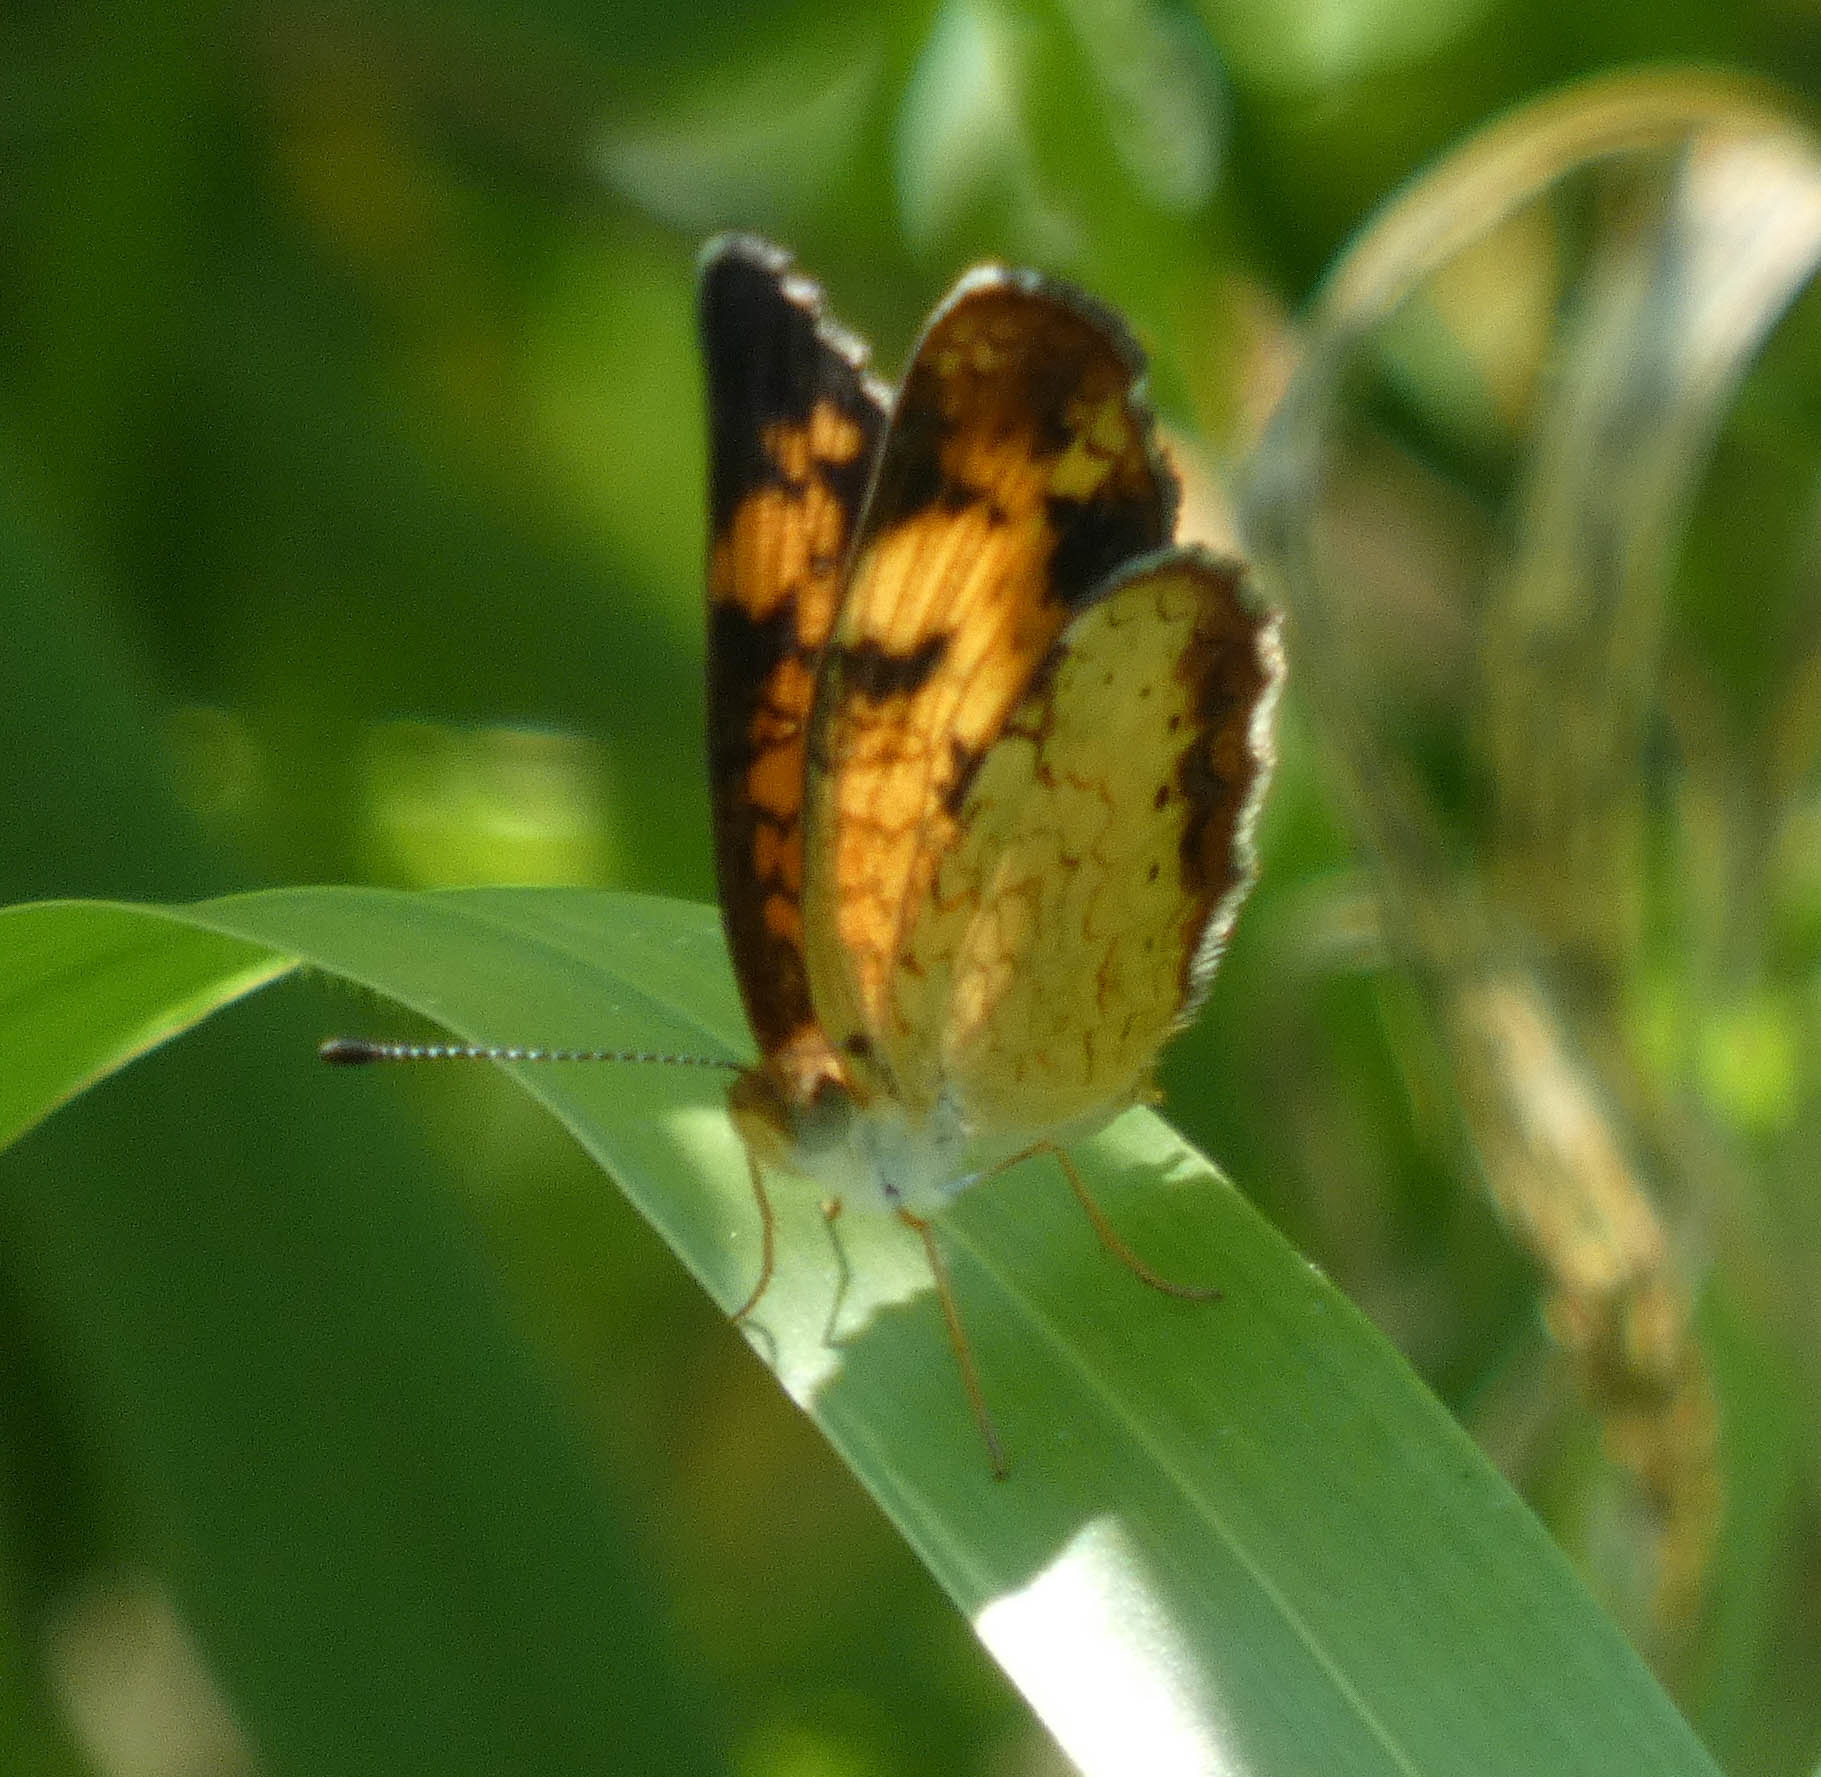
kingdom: Animalia
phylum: Arthropoda
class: Insecta
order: Lepidoptera
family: Nymphalidae
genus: Phyciodes
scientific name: Phyciodes tharos
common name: Pearl crescent
